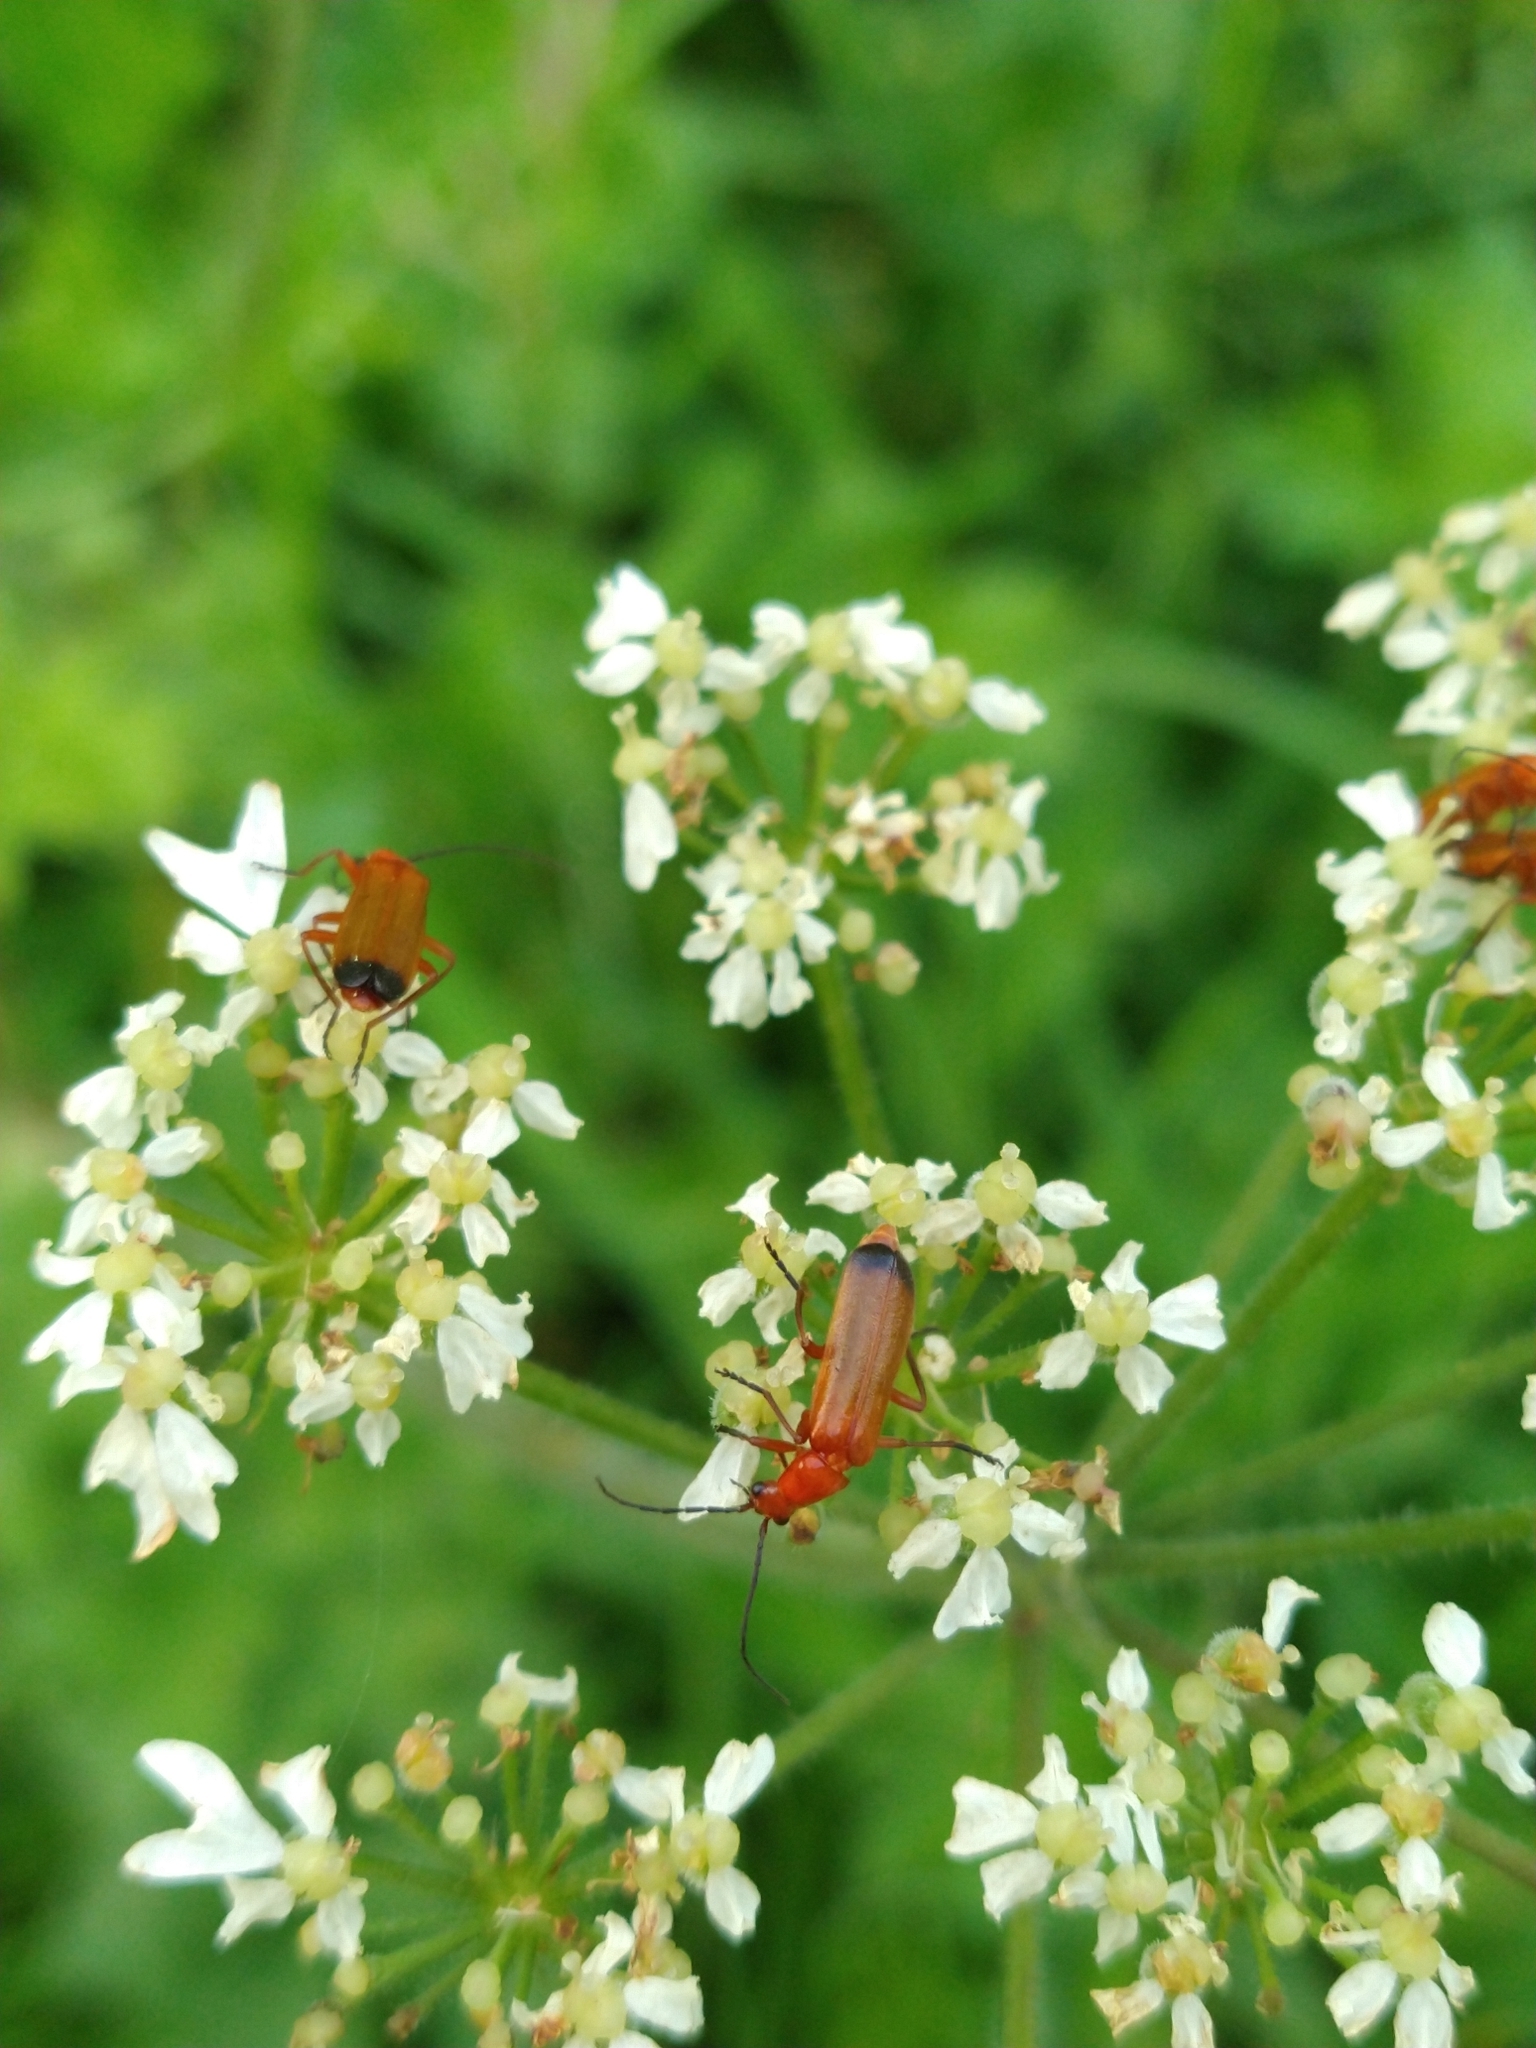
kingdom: Animalia
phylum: Arthropoda
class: Insecta
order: Coleoptera
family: Cantharidae
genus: Rhagonycha
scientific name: Rhagonycha fulva
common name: Common red soldier beetle
